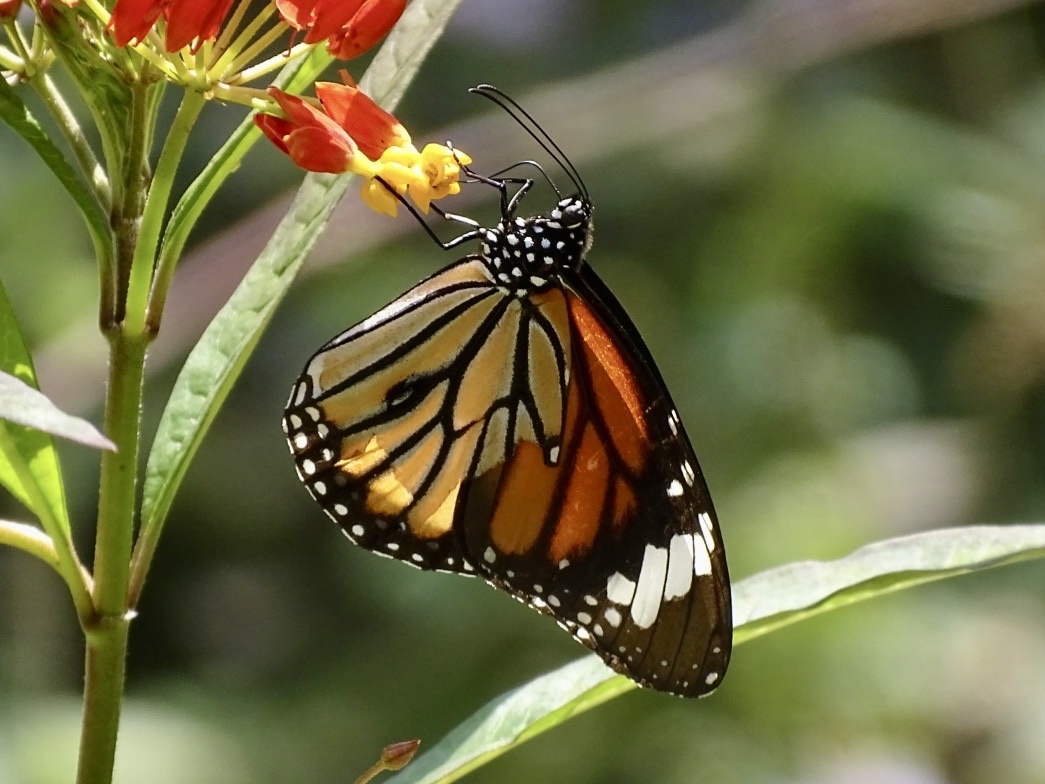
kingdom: Animalia
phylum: Arthropoda
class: Insecta
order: Lepidoptera
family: Nymphalidae
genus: Danaus
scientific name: Danaus genutia
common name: Common tiger butterfly
